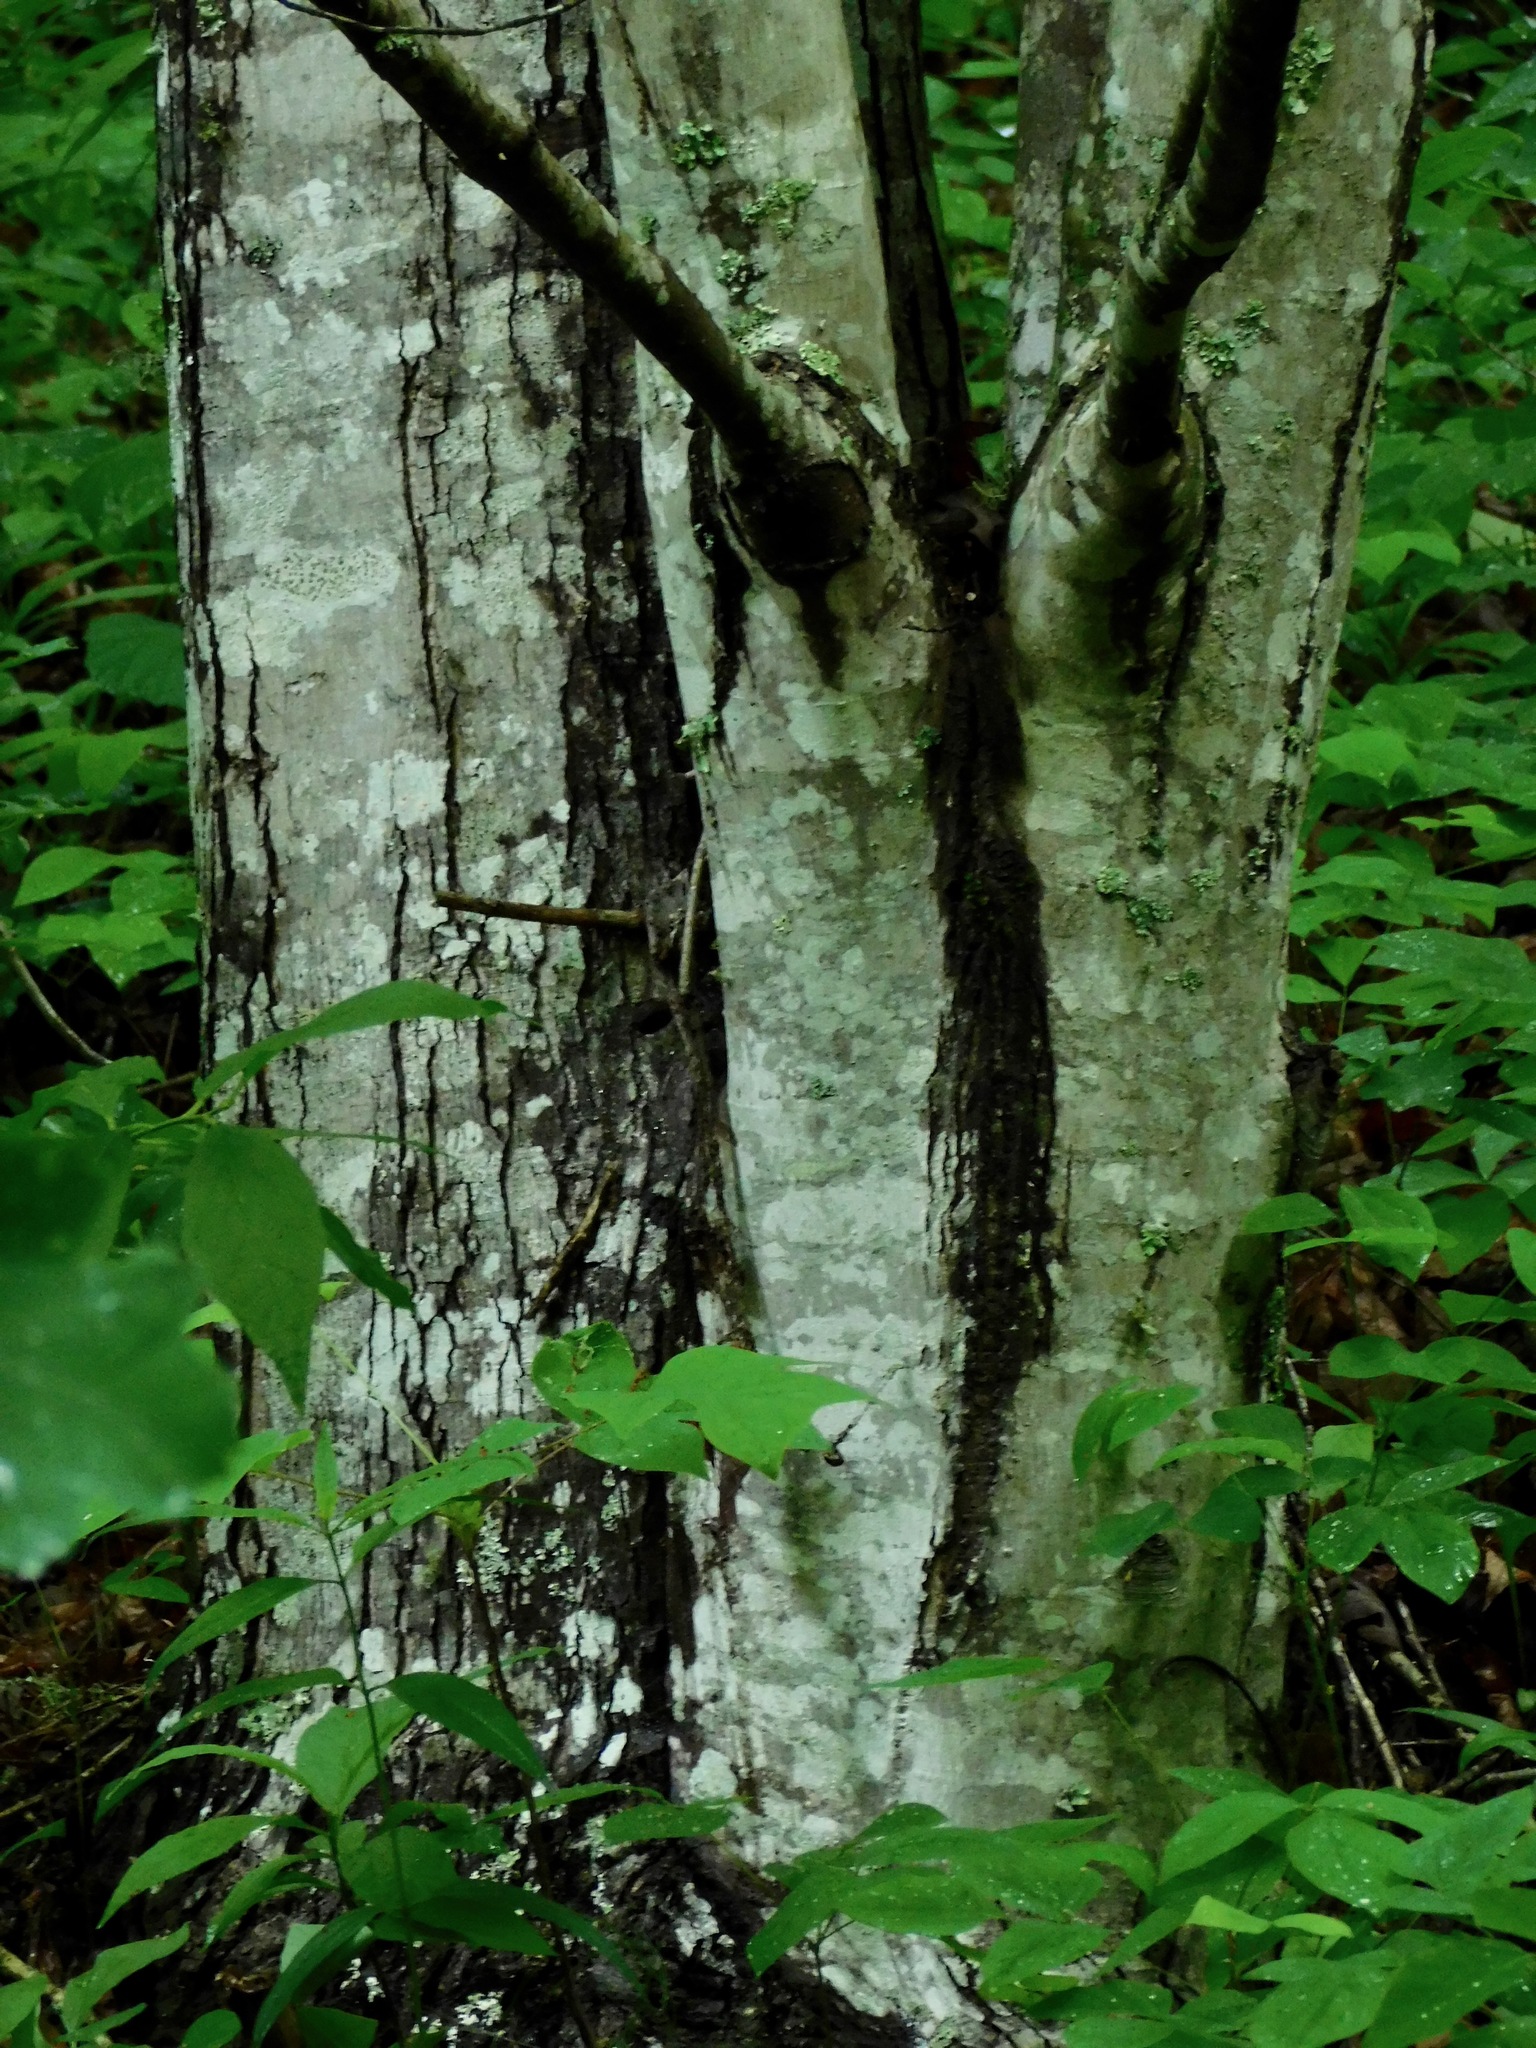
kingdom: Plantae
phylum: Tracheophyta
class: Magnoliopsida
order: Sapindales
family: Sapindaceae
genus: Acer
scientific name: Acer freemanii
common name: Freeman maple
